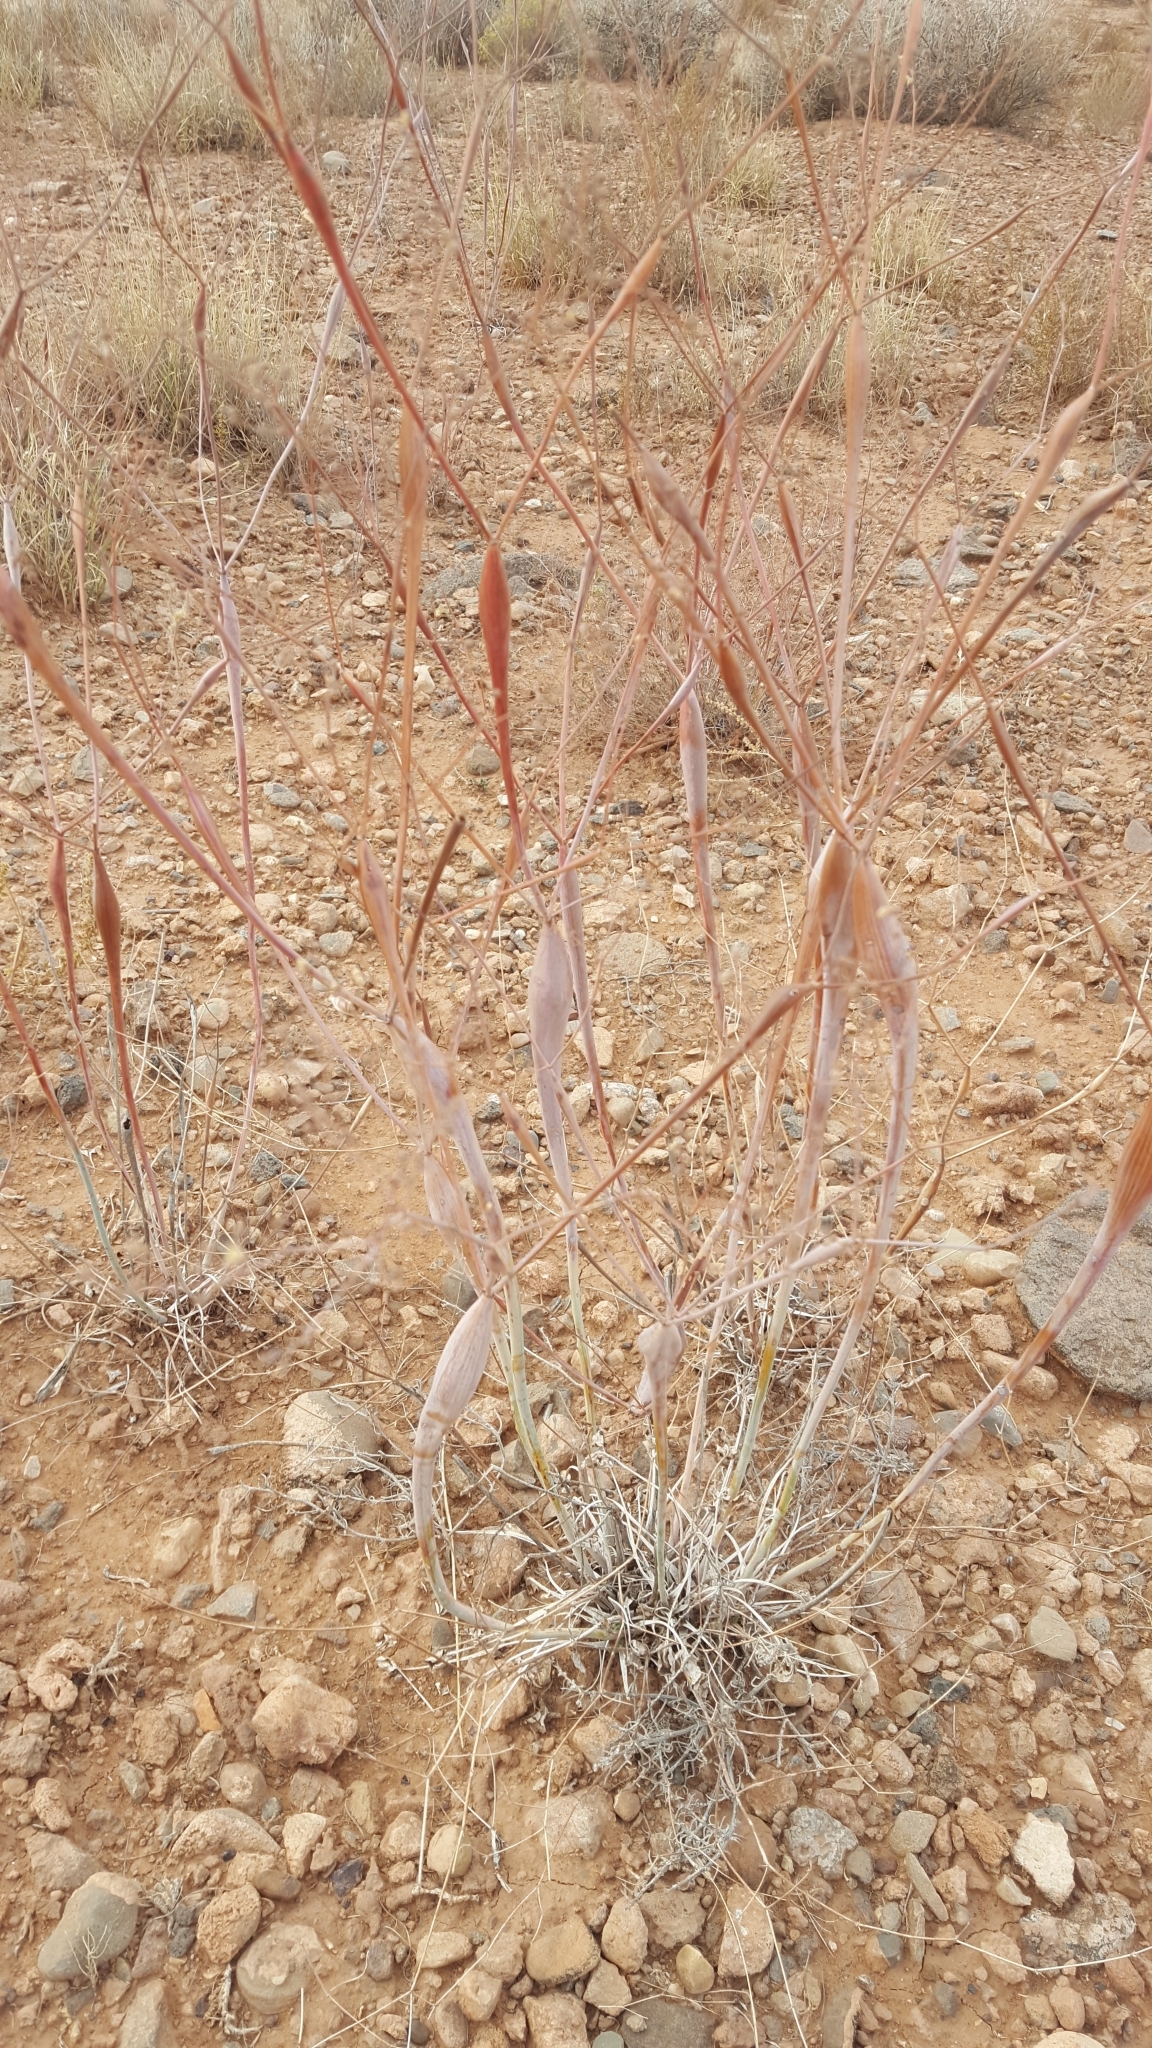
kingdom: Plantae
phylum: Tracheophyta
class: Magnoliopsida
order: Caryophyllales
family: Polygonaceae
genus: Eriogonum
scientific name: Eriogonum inflatum
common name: Desert trumpet
